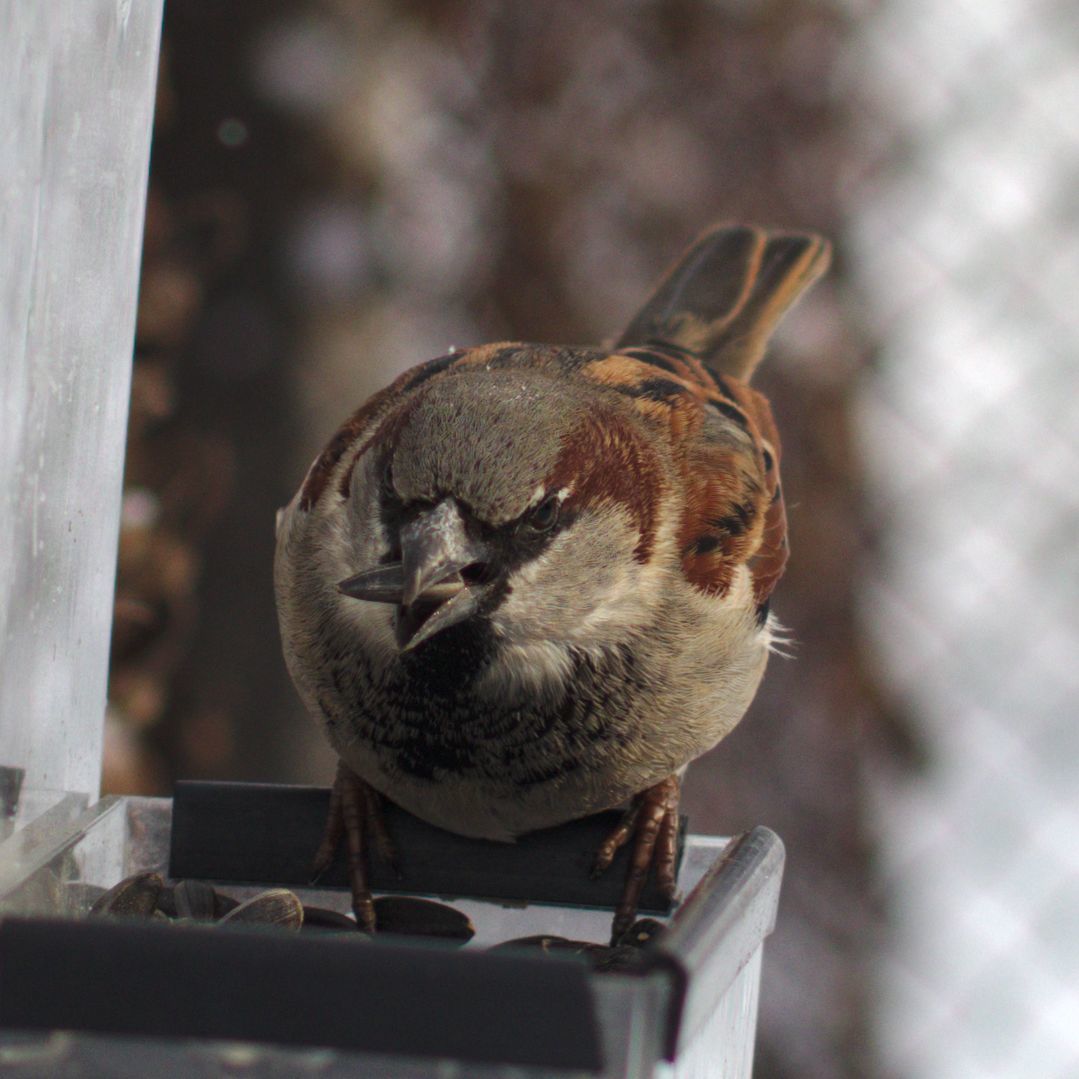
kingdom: Animalia
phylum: Chordata
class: Aves
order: Passeriformes
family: Passeridae
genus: Passer
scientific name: Passer domesticus
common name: House sparrow
